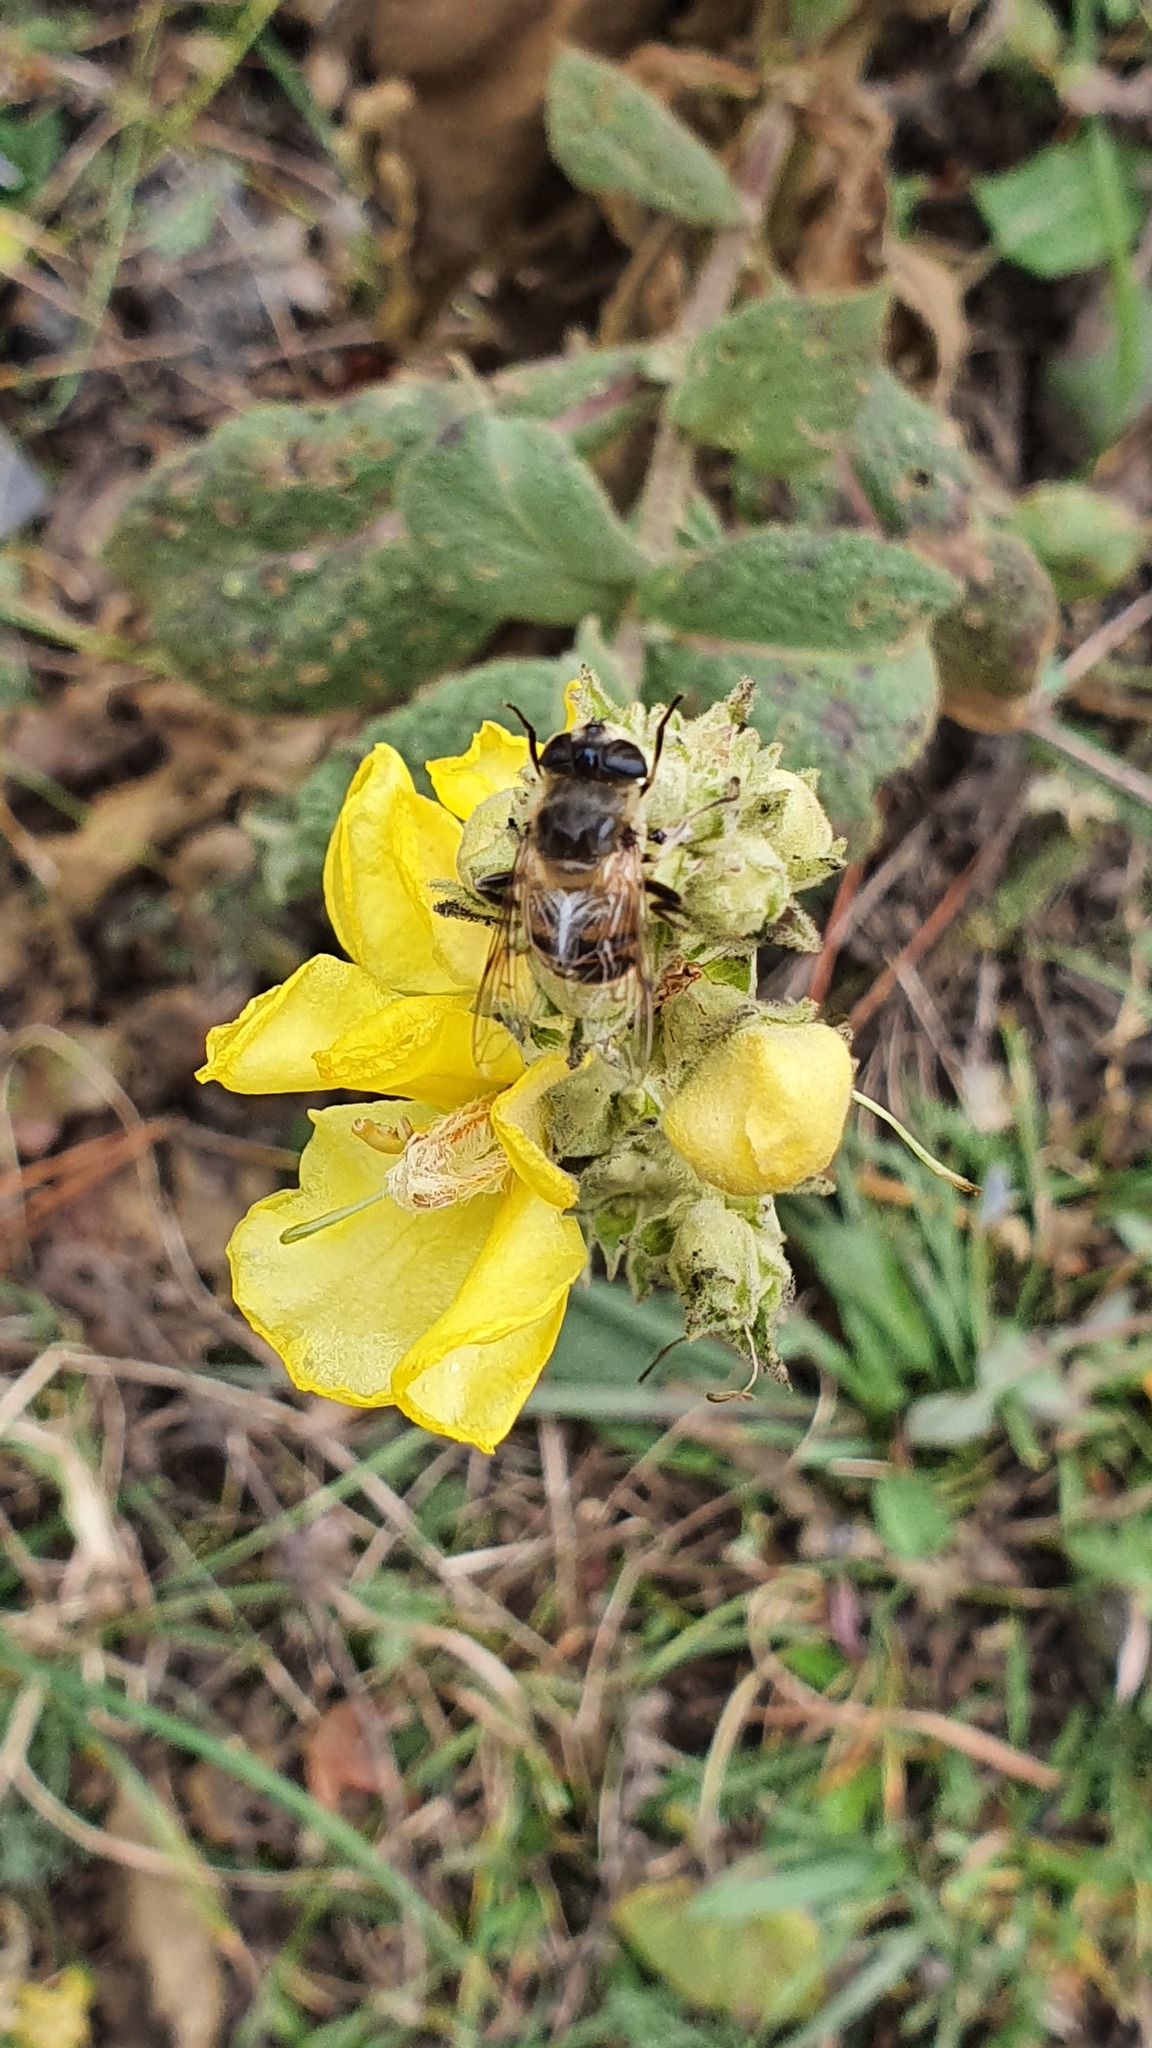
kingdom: Animalia
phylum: Arthropoda
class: Insecta
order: Diptera
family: Syrphidae
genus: Eristalis
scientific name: Eristalis tenax
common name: Drone fly
